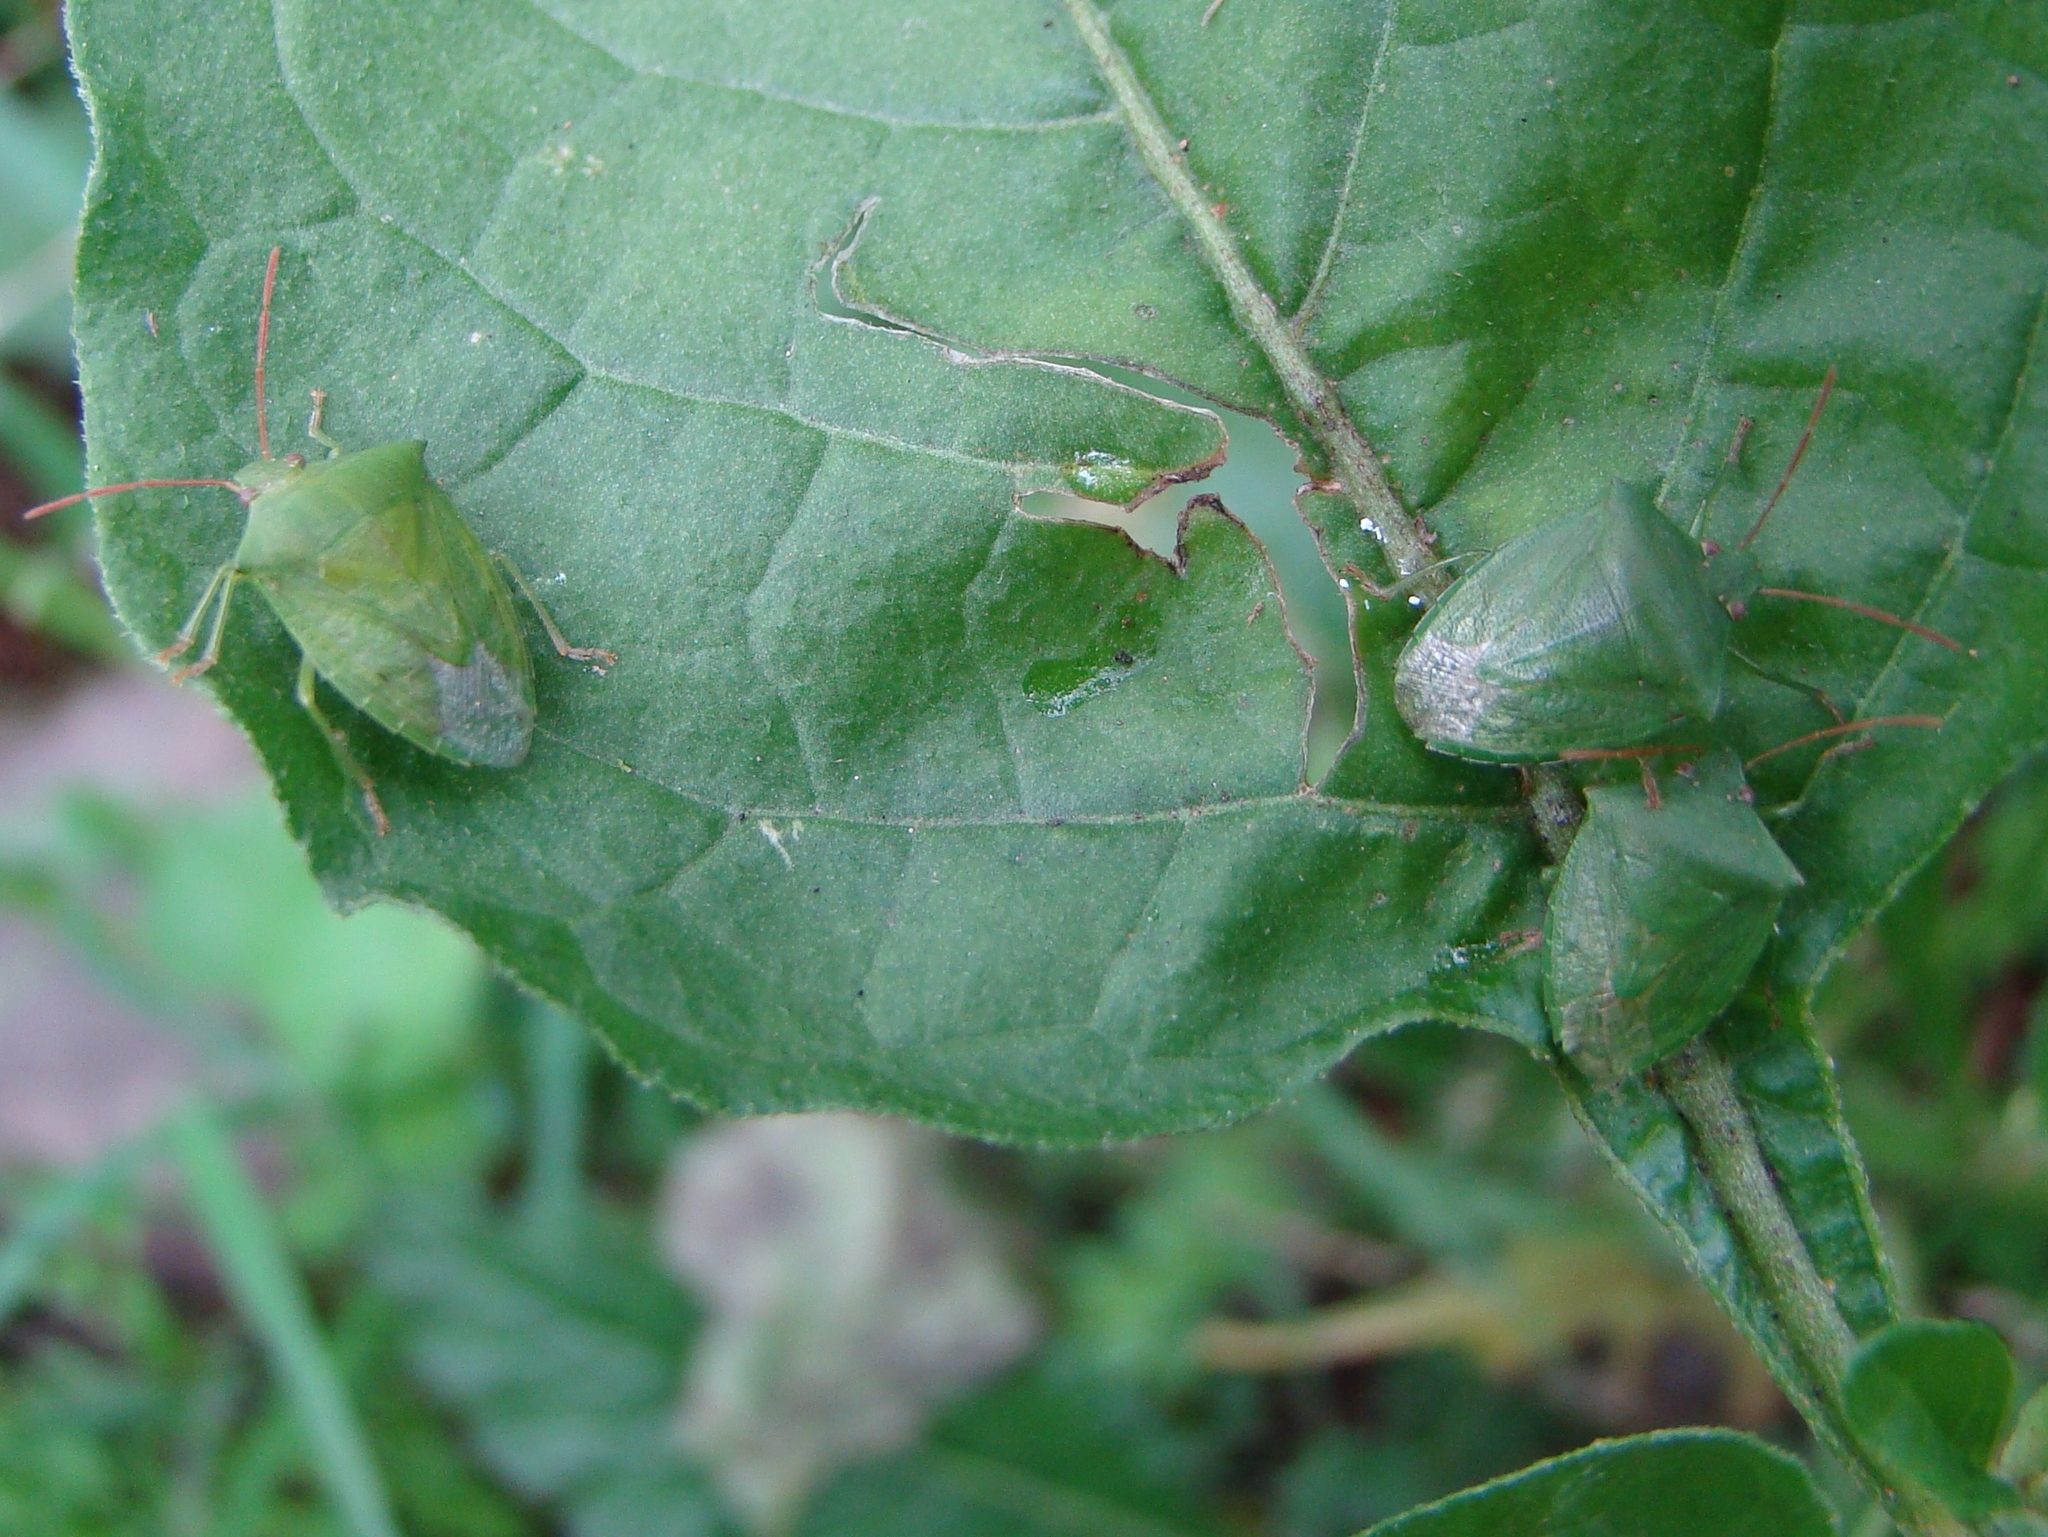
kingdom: Animalia
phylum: Arthropoda
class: Insecta
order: Hemiptera
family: Pentatomidae
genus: Cuspicona
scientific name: Cuspicona simplex
